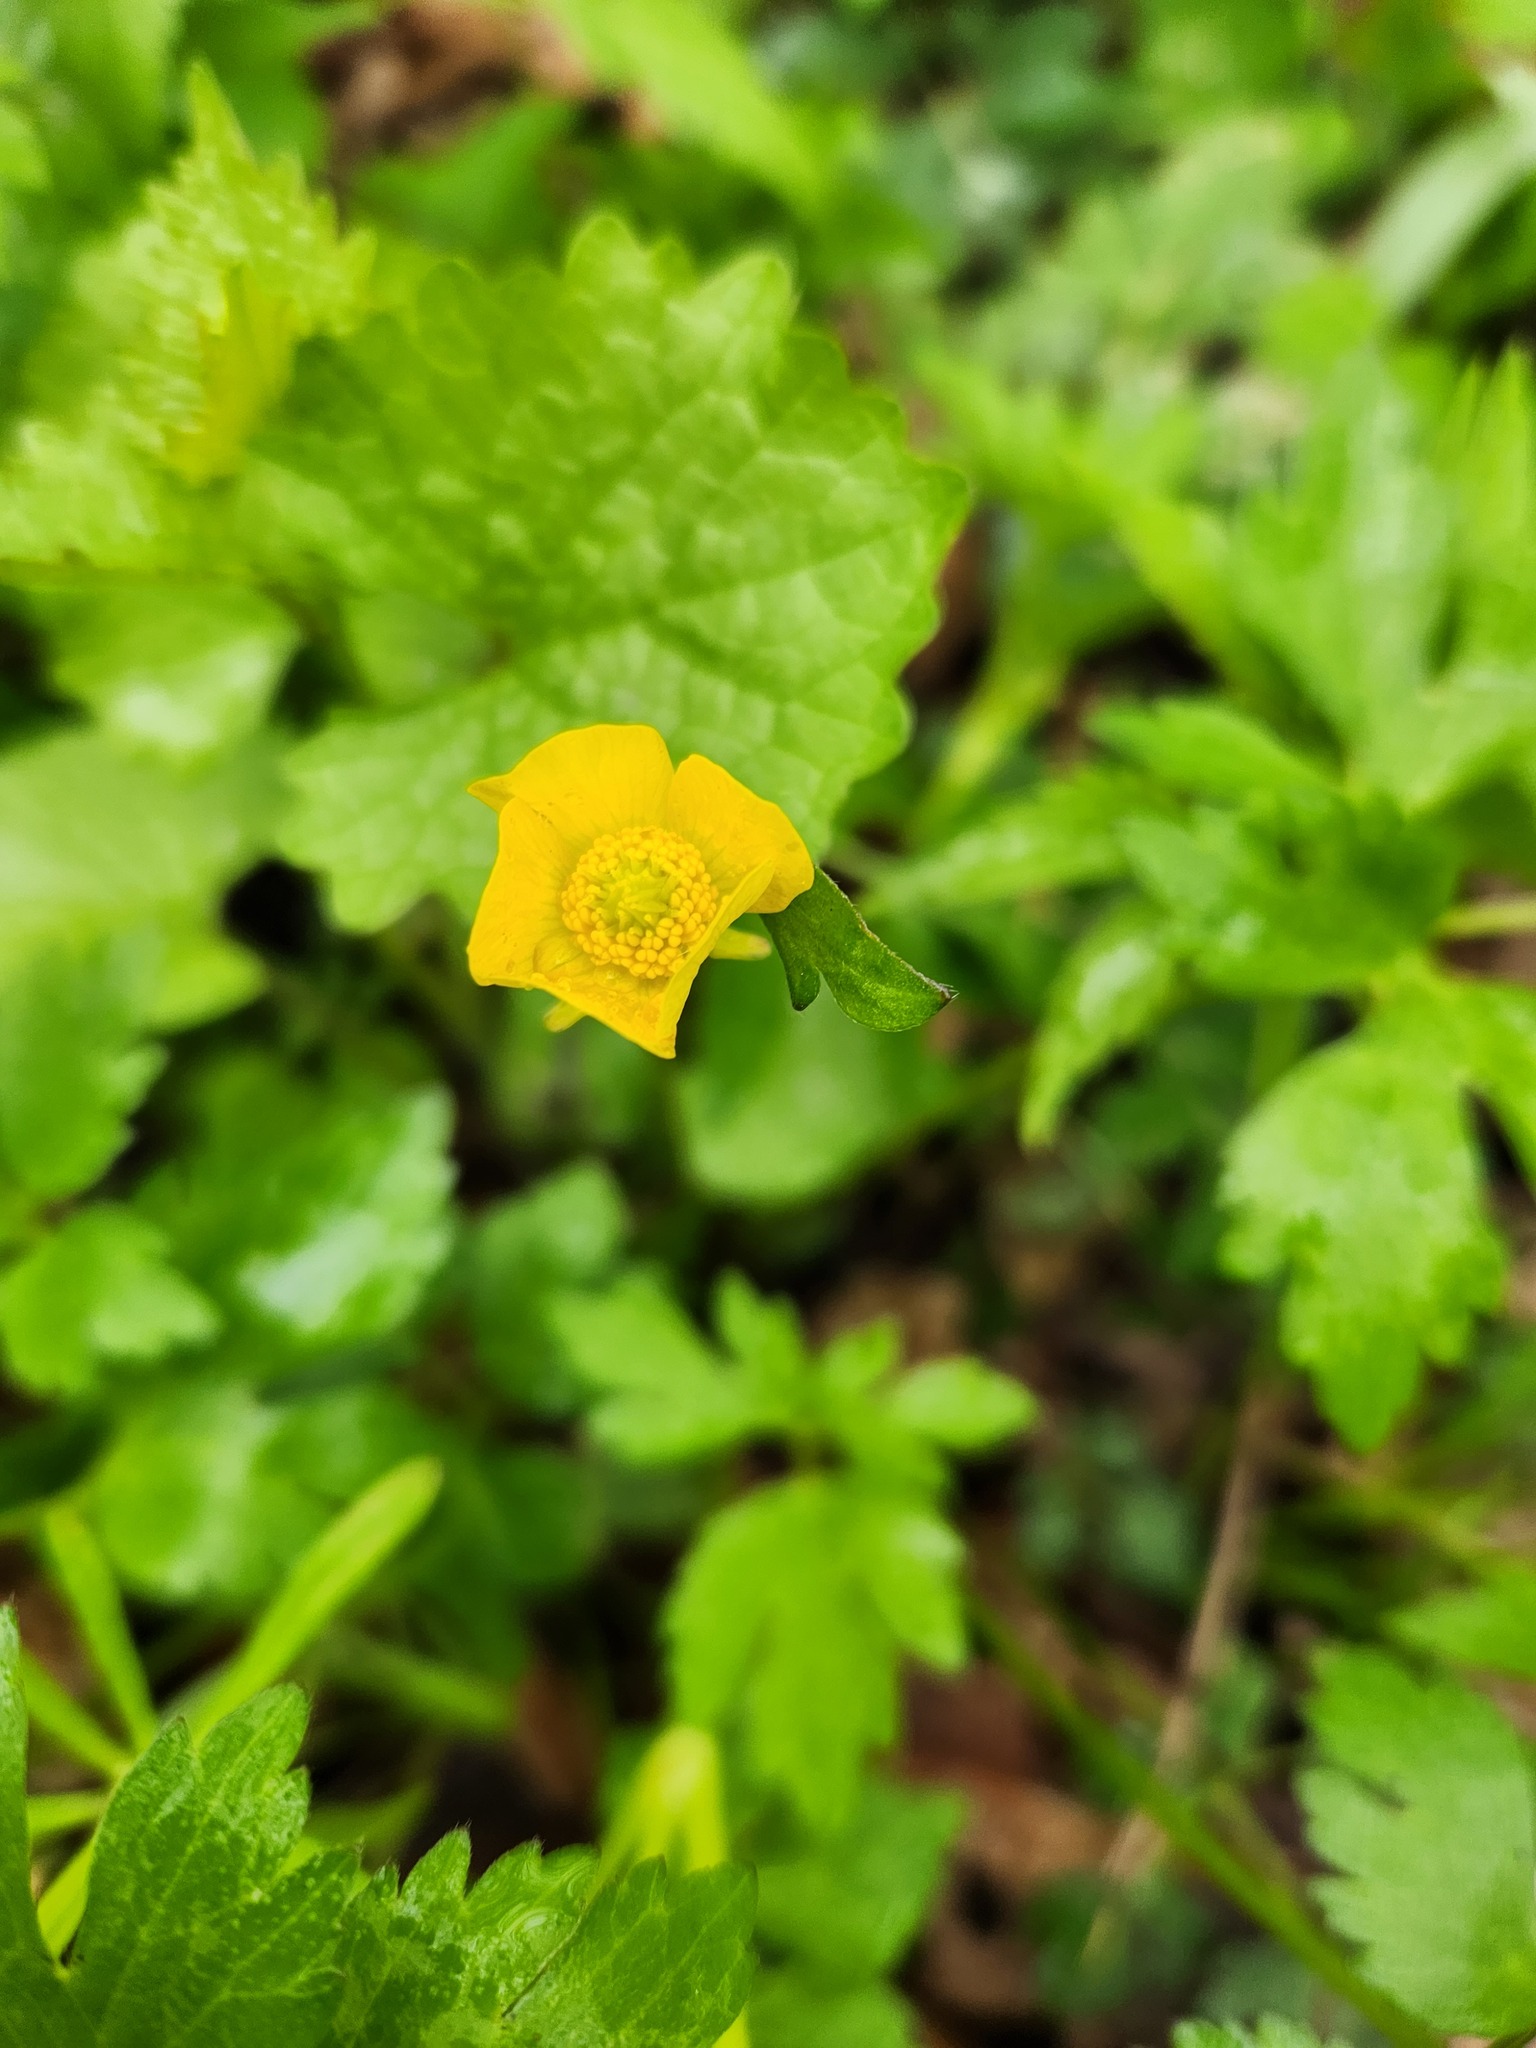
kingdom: Plantae
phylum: Tracheophyta
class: Magnoliopsida
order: Ranunculales
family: Ranunculaceae
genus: Ranunculus
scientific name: Ranunculus hispidus
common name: Bristly buttercup
